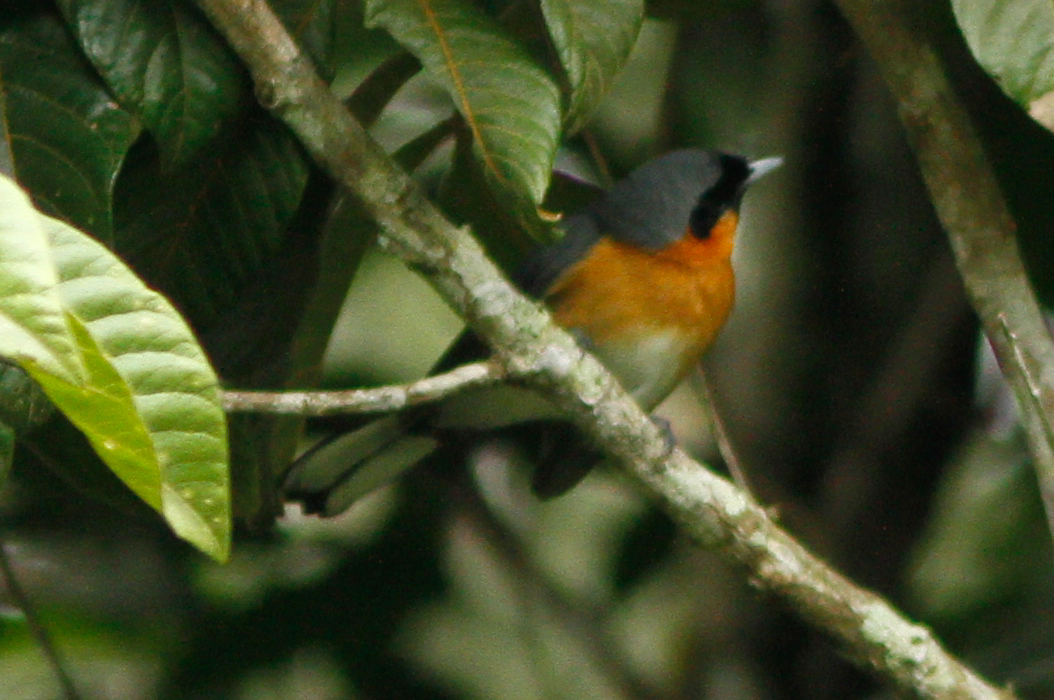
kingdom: Animalia
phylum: Chordata
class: Aves
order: Passeriformes
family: Monarchidae
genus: Symposiachrus
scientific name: Symposiachrus trivirgatus
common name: Spectacled monarch
